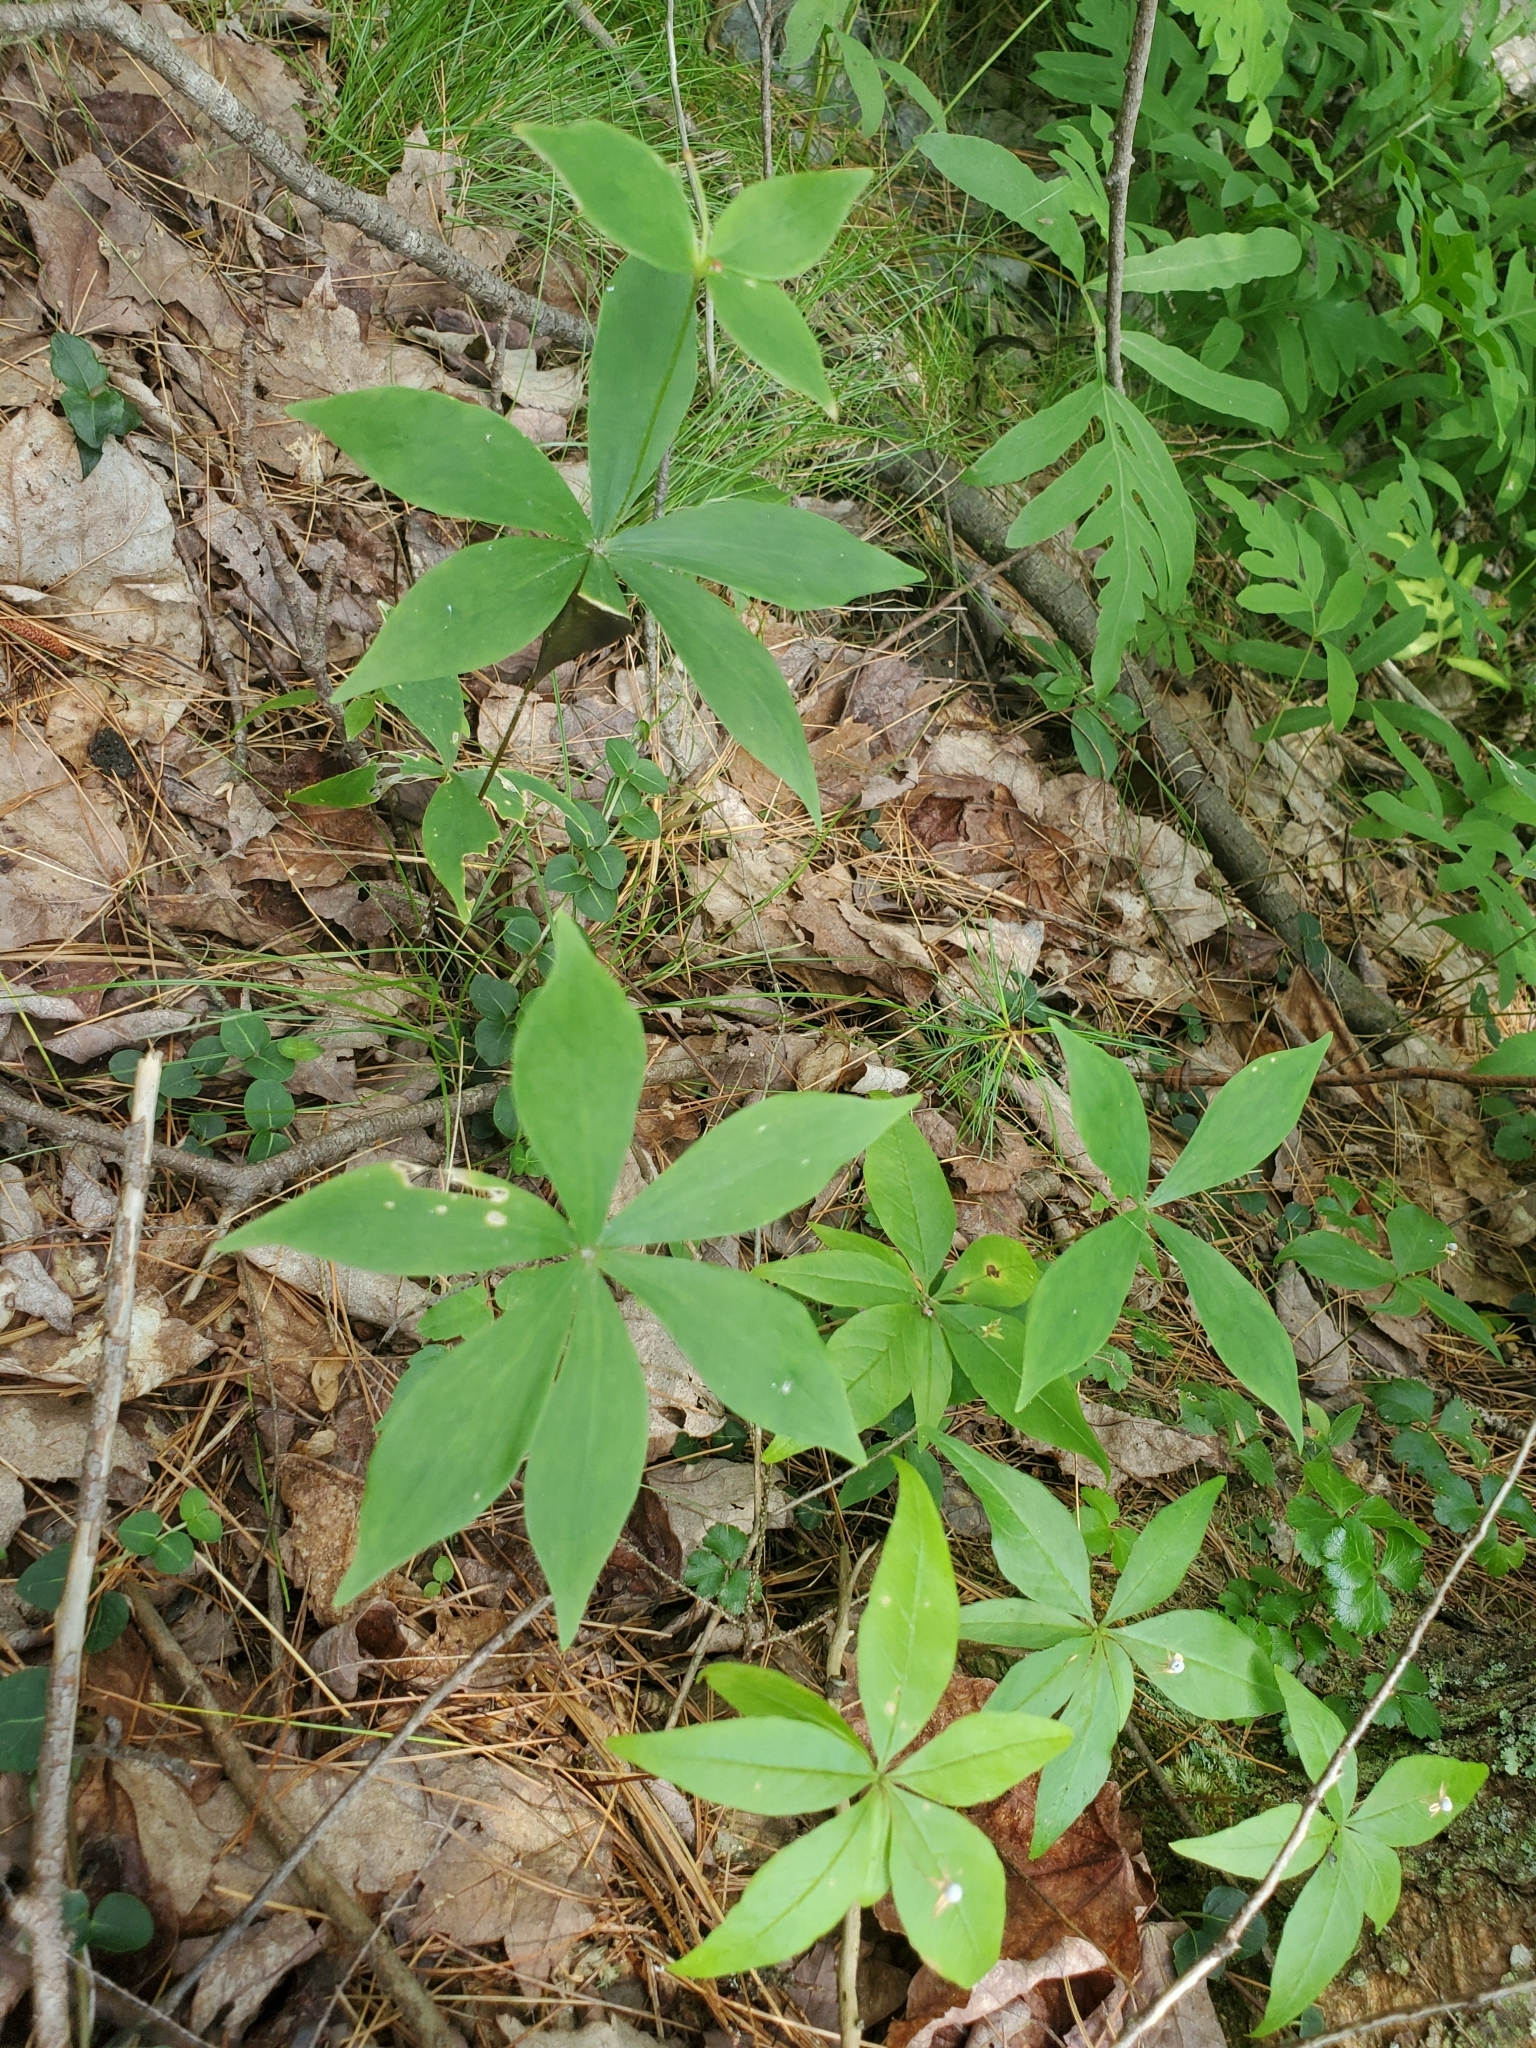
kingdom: Plantae
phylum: Tracheophyta
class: Magnoliopsida
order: Ericales
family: Primulaceae
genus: Lysimachia
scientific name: Lysimachia borealis
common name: American starflower
